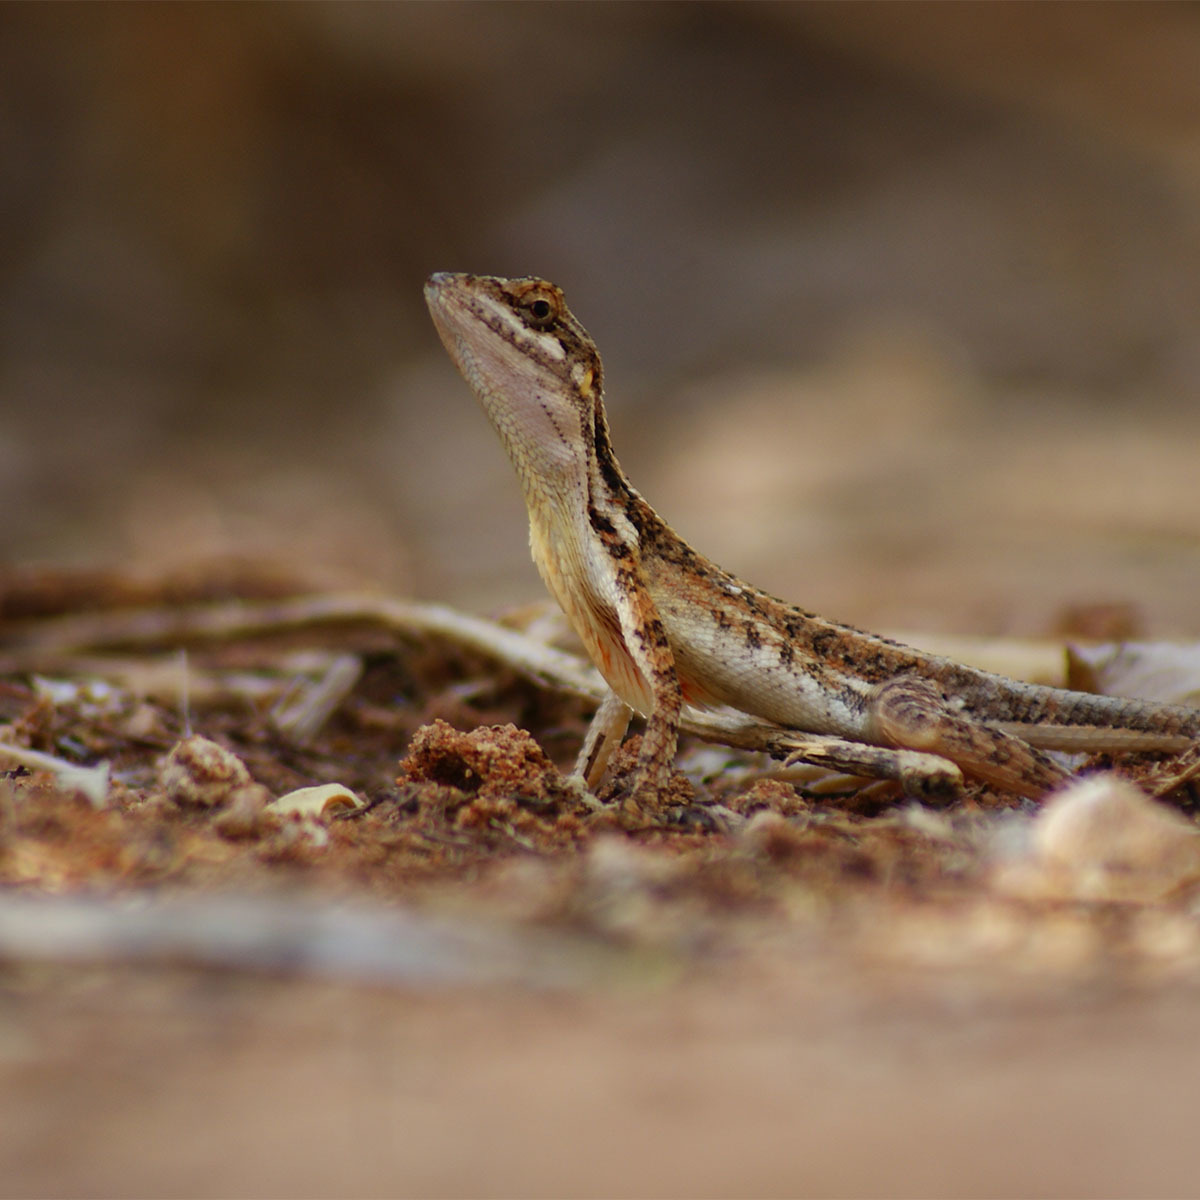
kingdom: Animalia
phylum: Chordata
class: Squamata
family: Agamidae
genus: Sitana
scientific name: Sitana marudhamneydhal
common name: Attenborough’s fan-throated lizard
